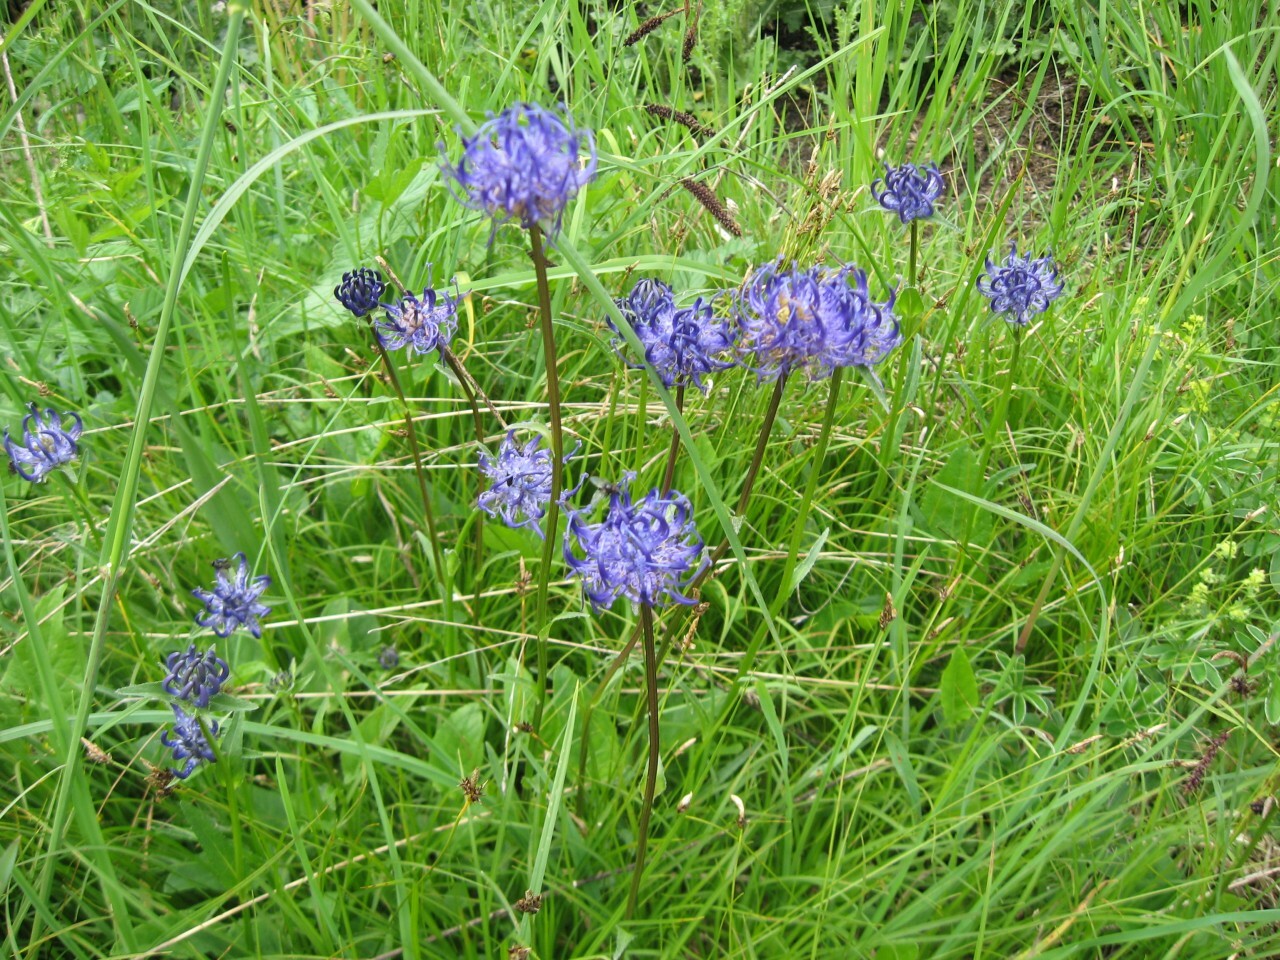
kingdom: Plantae
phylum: Tracheophyta
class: Magnoliopsida
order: Asterales
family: Campanulaceae
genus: Phyteuma
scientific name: Phyteuma orbiculare
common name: Round-headed rampion
